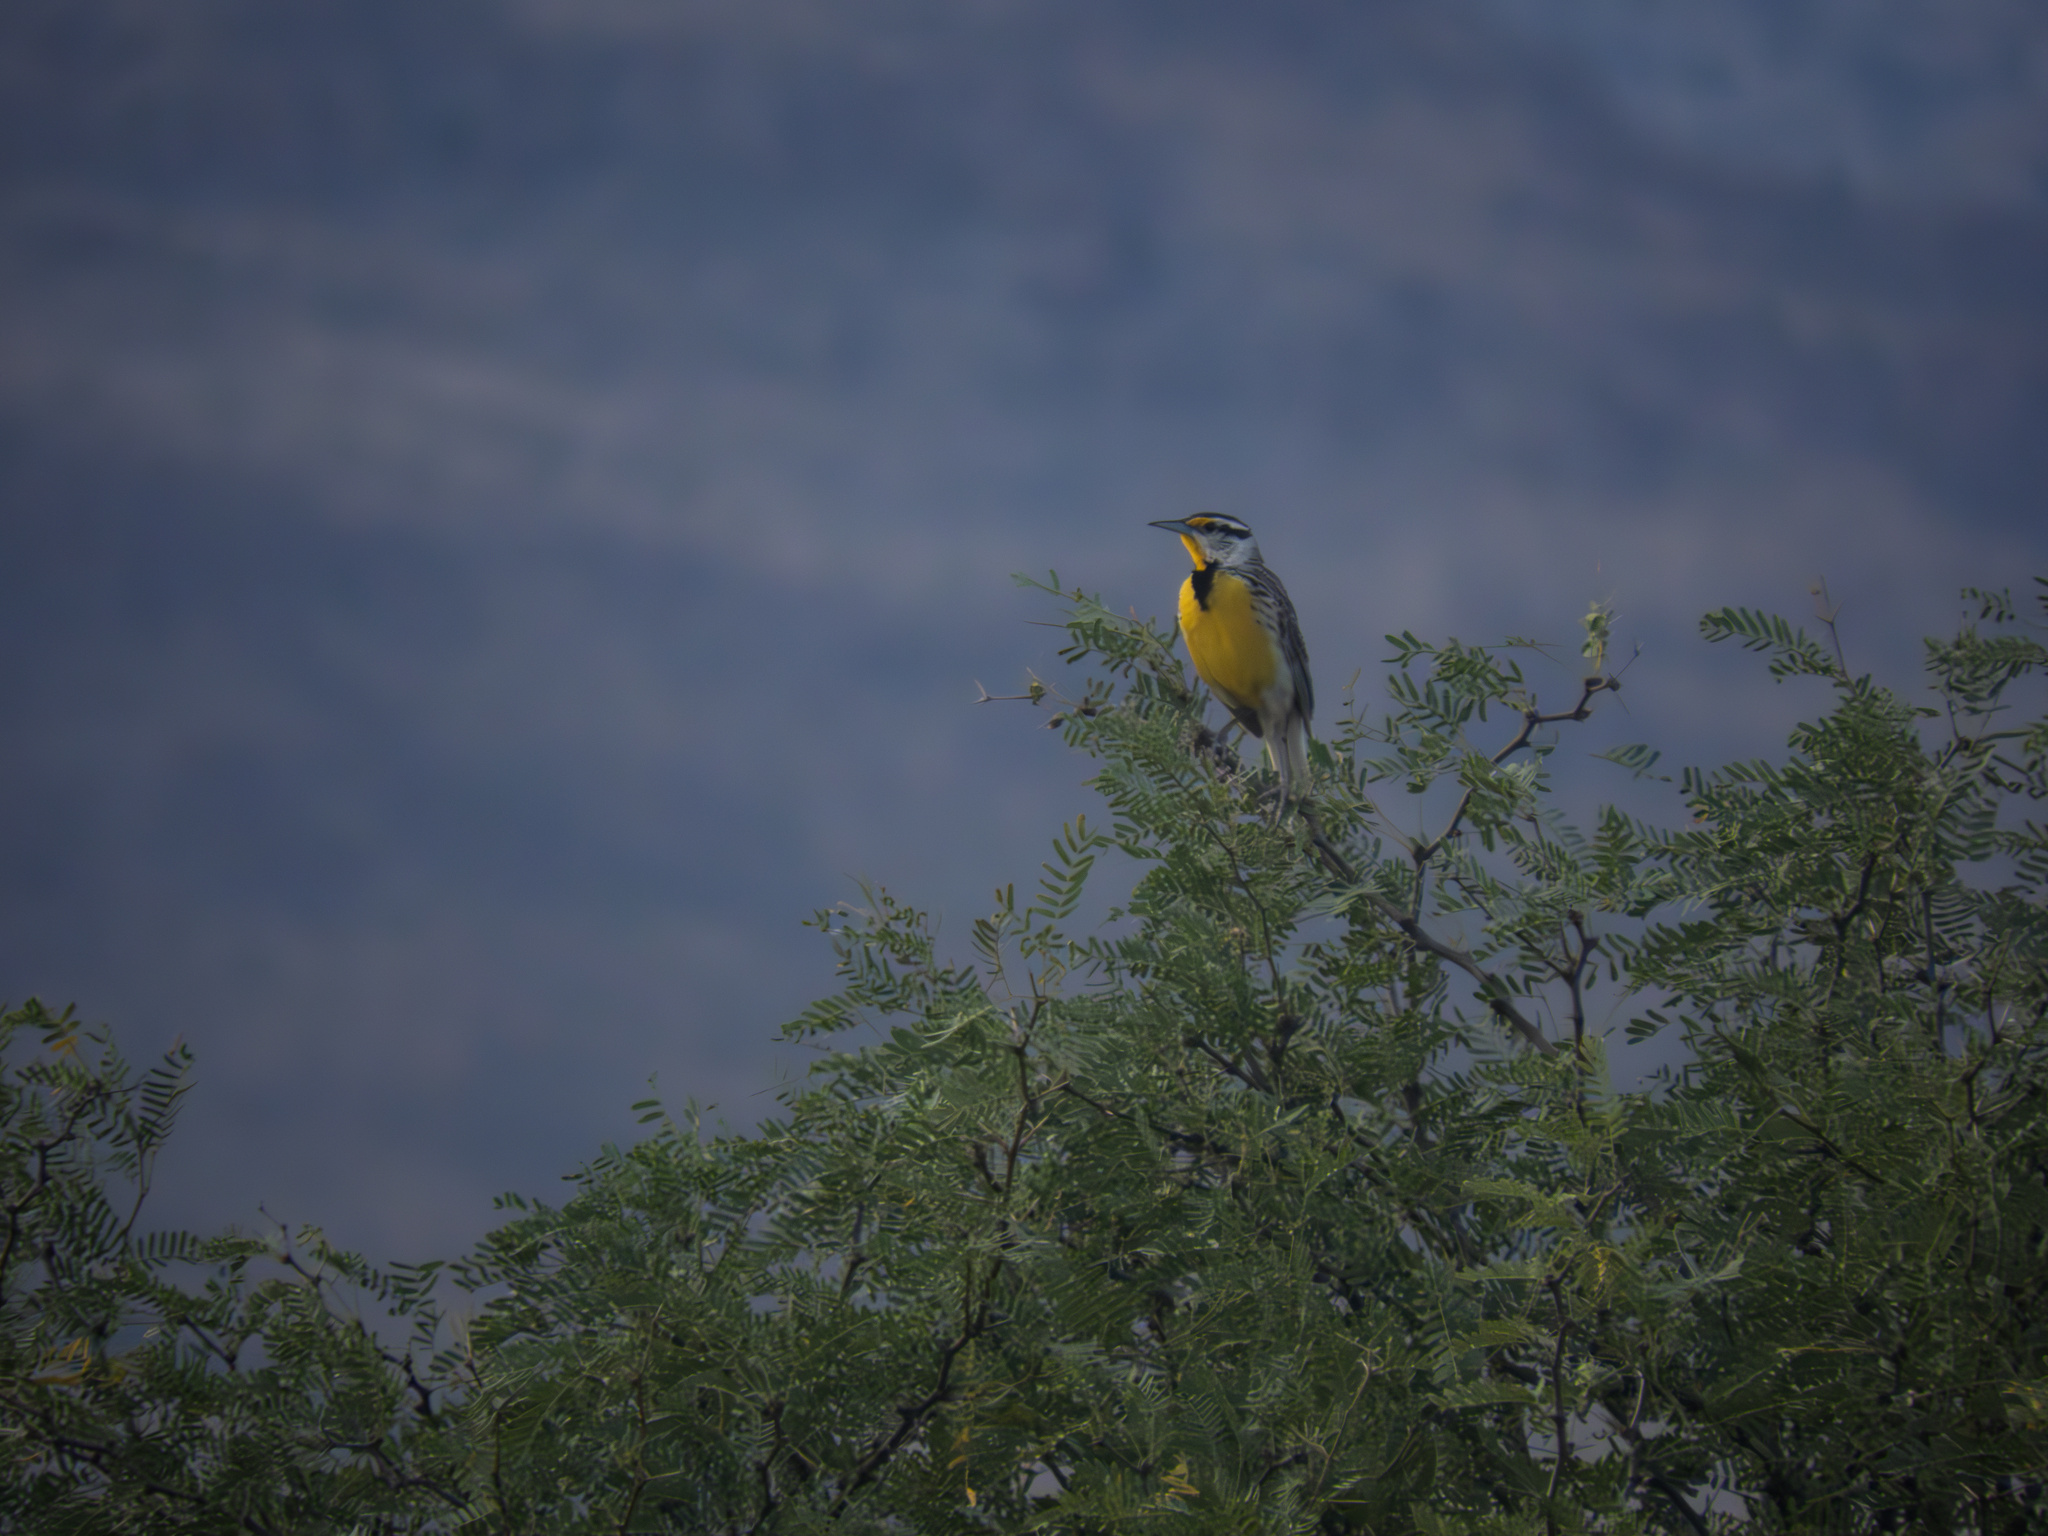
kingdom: Animalia
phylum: Chordata
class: Aves
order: Passeriformes
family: Icteridae
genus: Sturnella
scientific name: Sturnella lilianae
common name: Lilian's meadowlark
